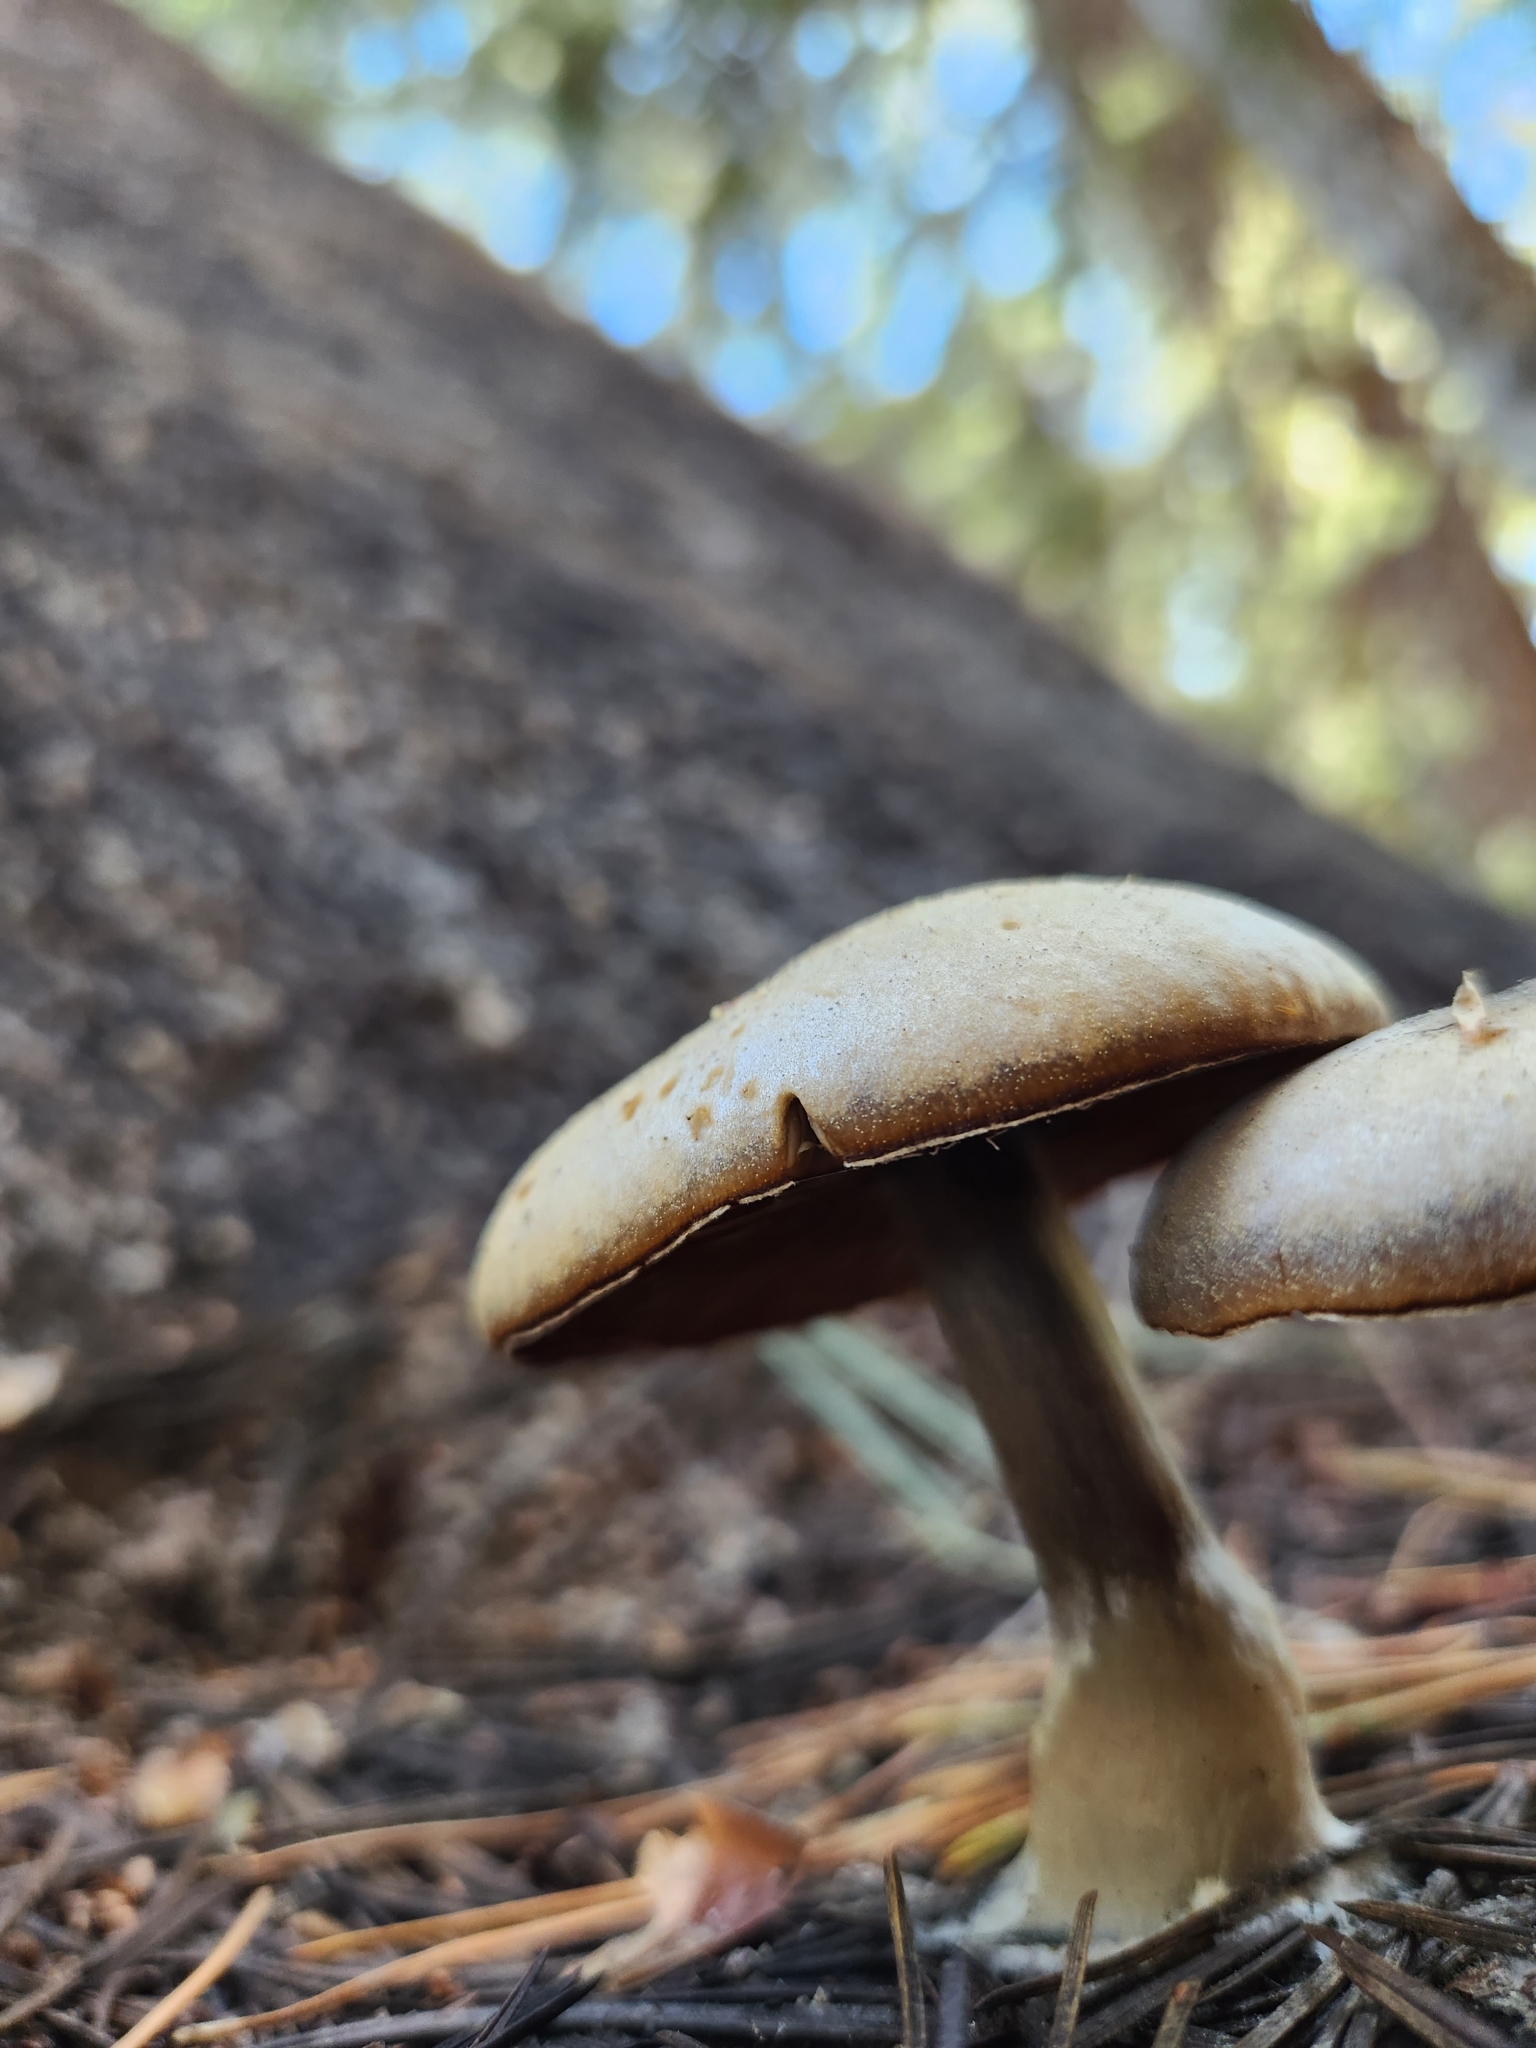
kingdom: Fungi
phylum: Basidiomycota
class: Agaricomycetes
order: Agaricales
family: Tricholomataceae
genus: Clitocybe
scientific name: Clitocybe glacialis
